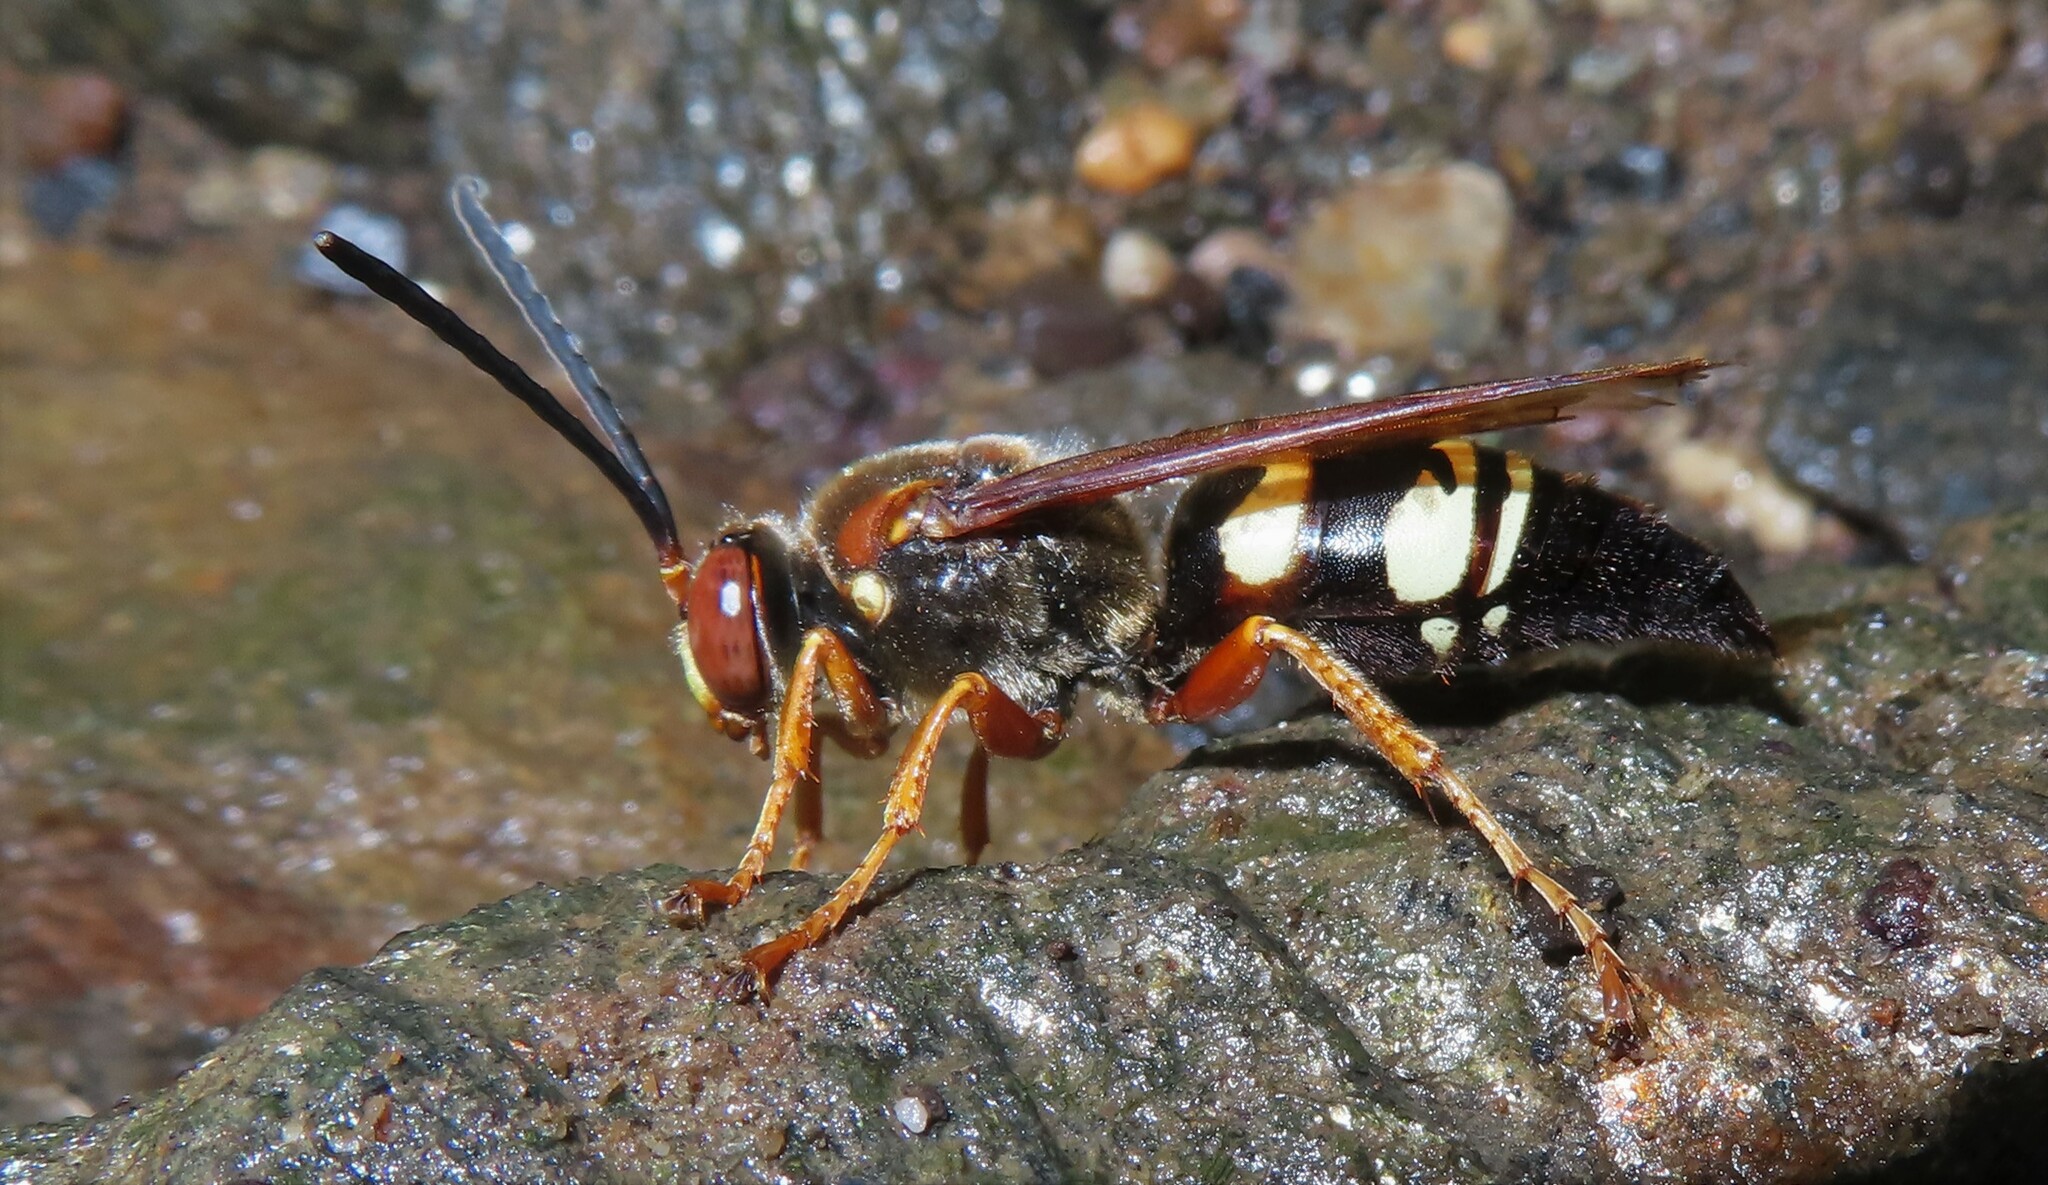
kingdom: Animalia
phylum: Arthropoda
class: Insecta
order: Hymenoptera
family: Crabronidae
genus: Sphecius
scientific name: Sphecius speciosus
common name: Cicada killer
